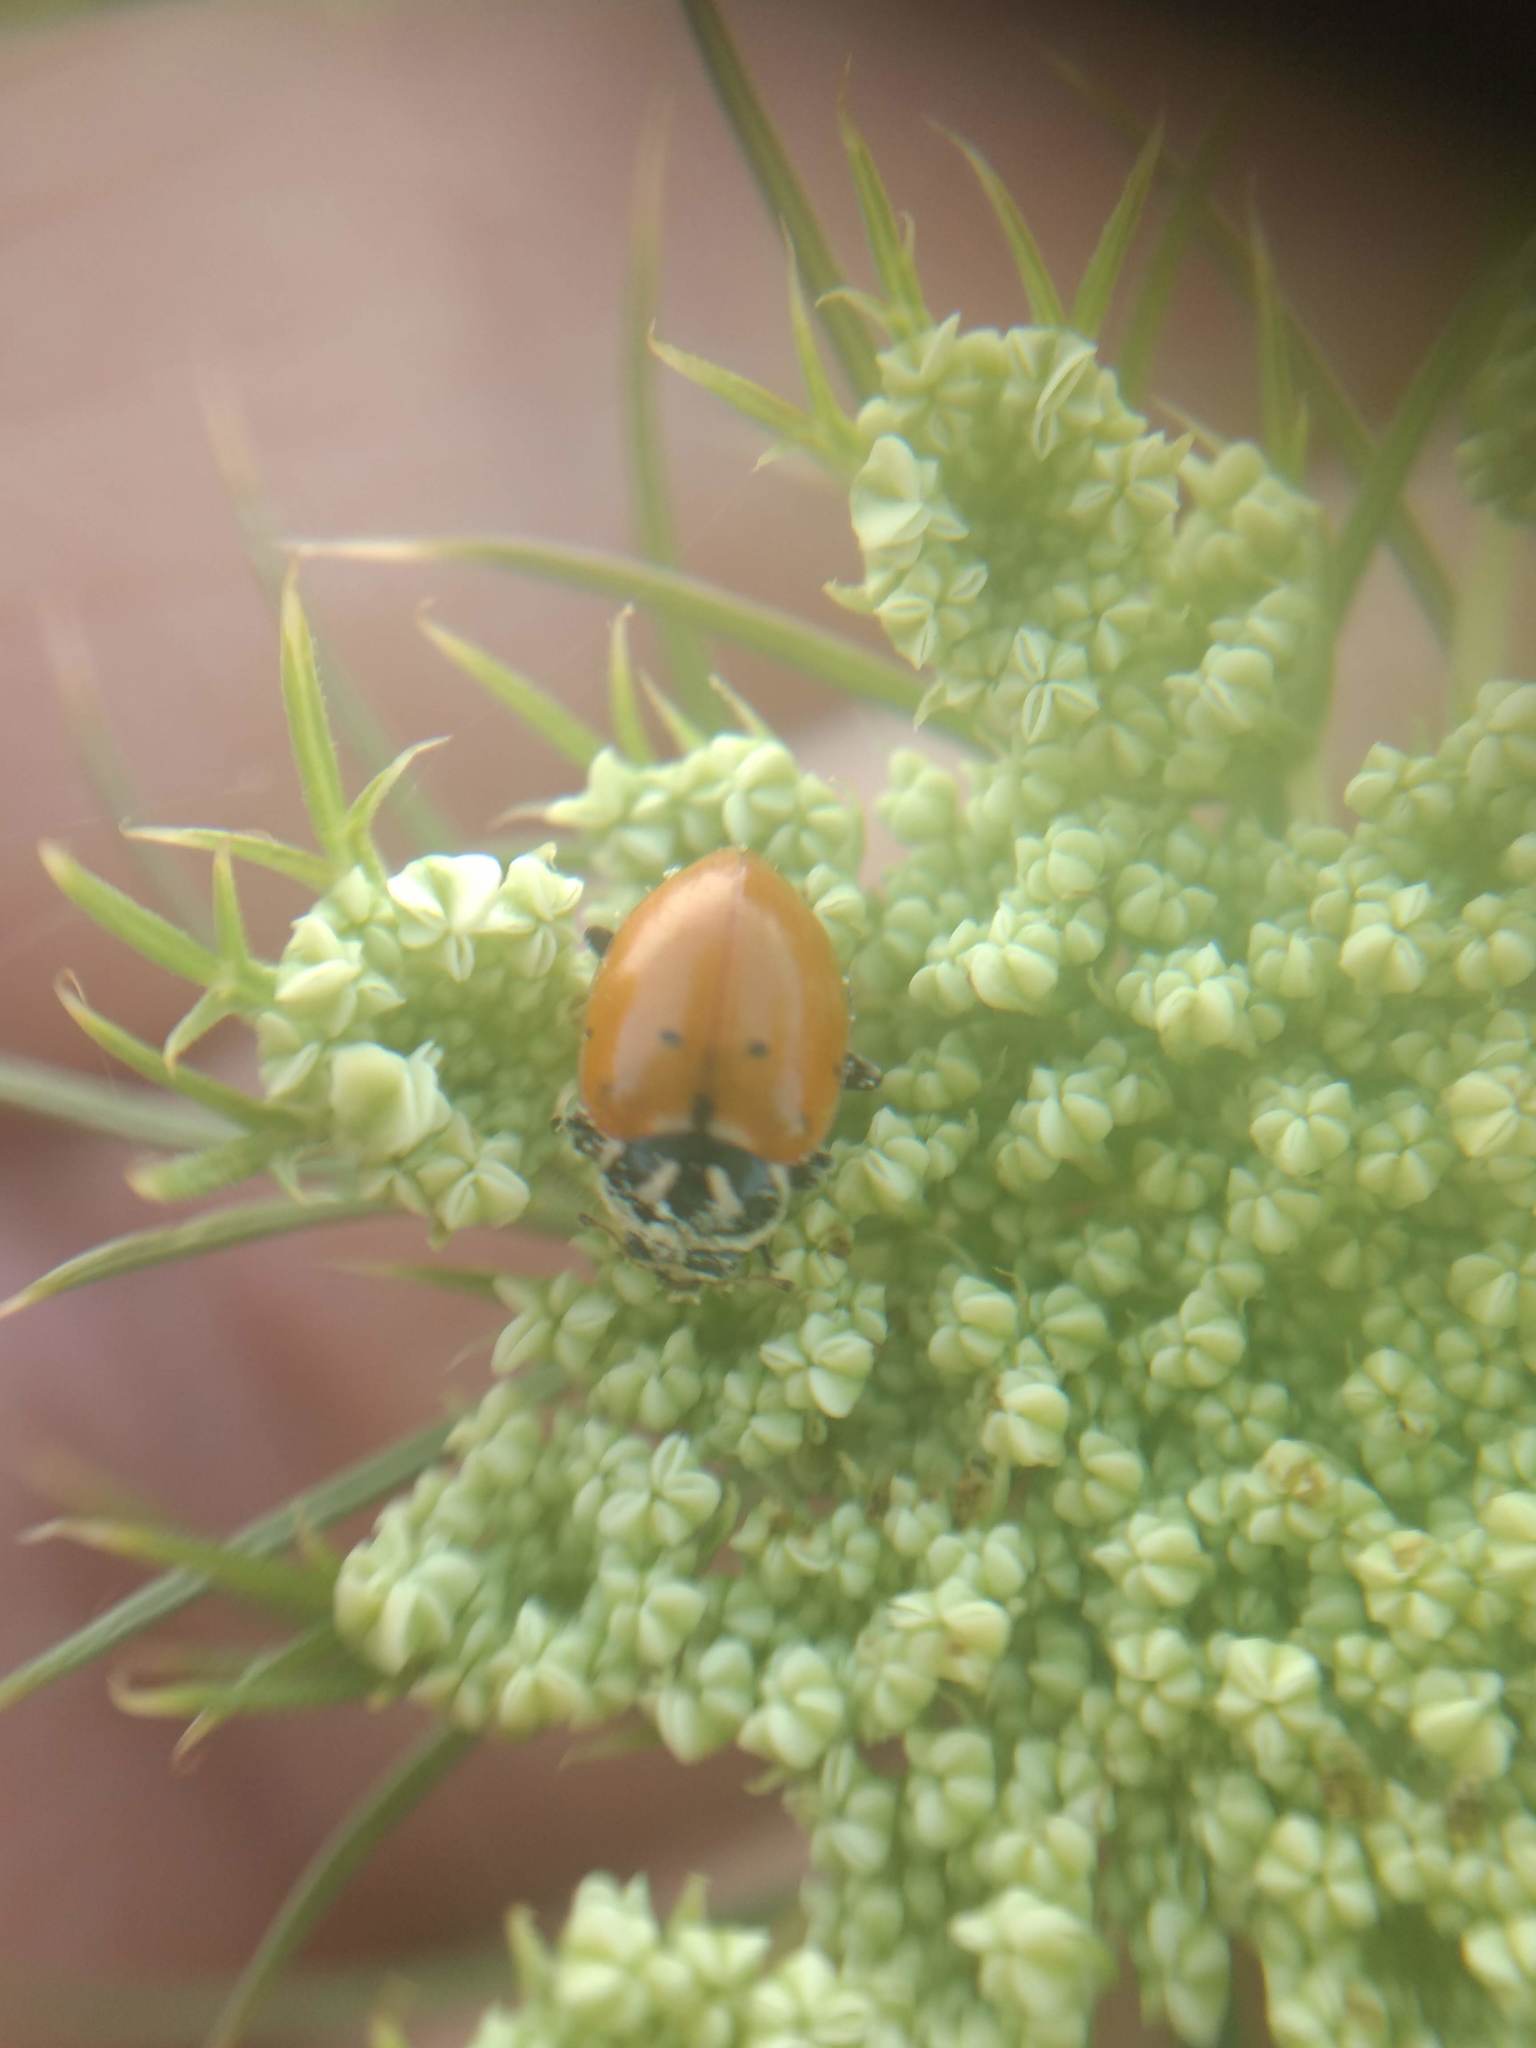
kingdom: Animalia
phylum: Arthropoda
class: Insecta
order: Coleoptera
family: Coccinellidae
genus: Hippodamia
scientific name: Hippodamia convergens
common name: Convergent lady beetle
